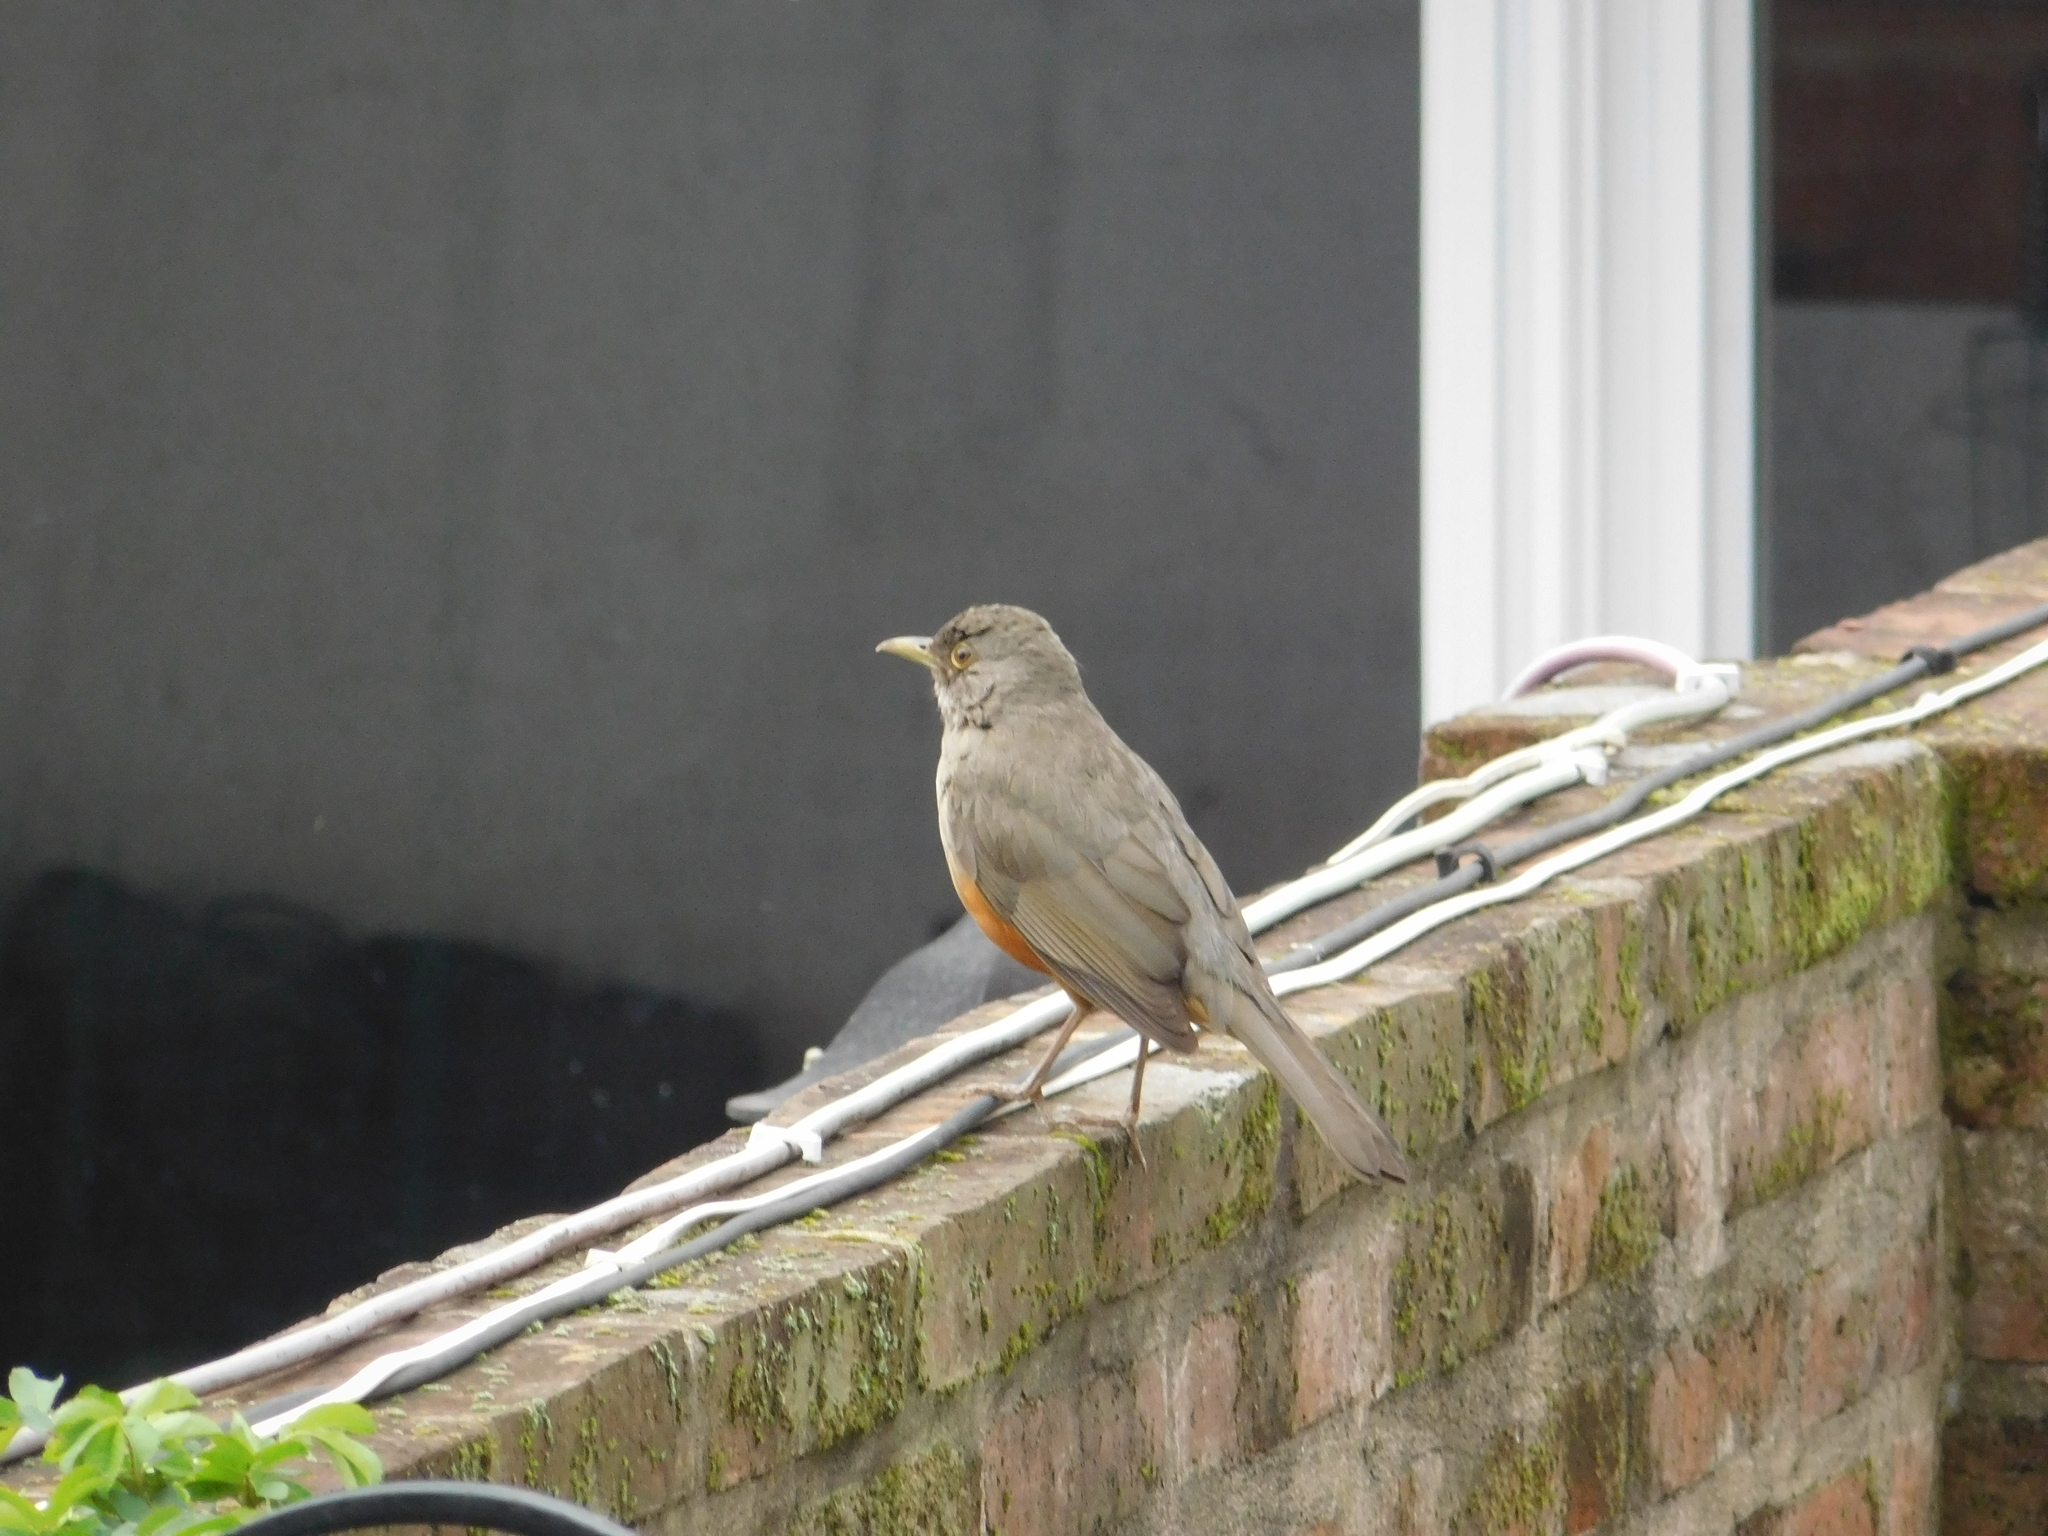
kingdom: Animalia
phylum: Chordata
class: Aves
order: Passeriformes
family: Turdidae
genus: Turdus
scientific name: Turdus rufiventris
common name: Rufous-bellied thrush
